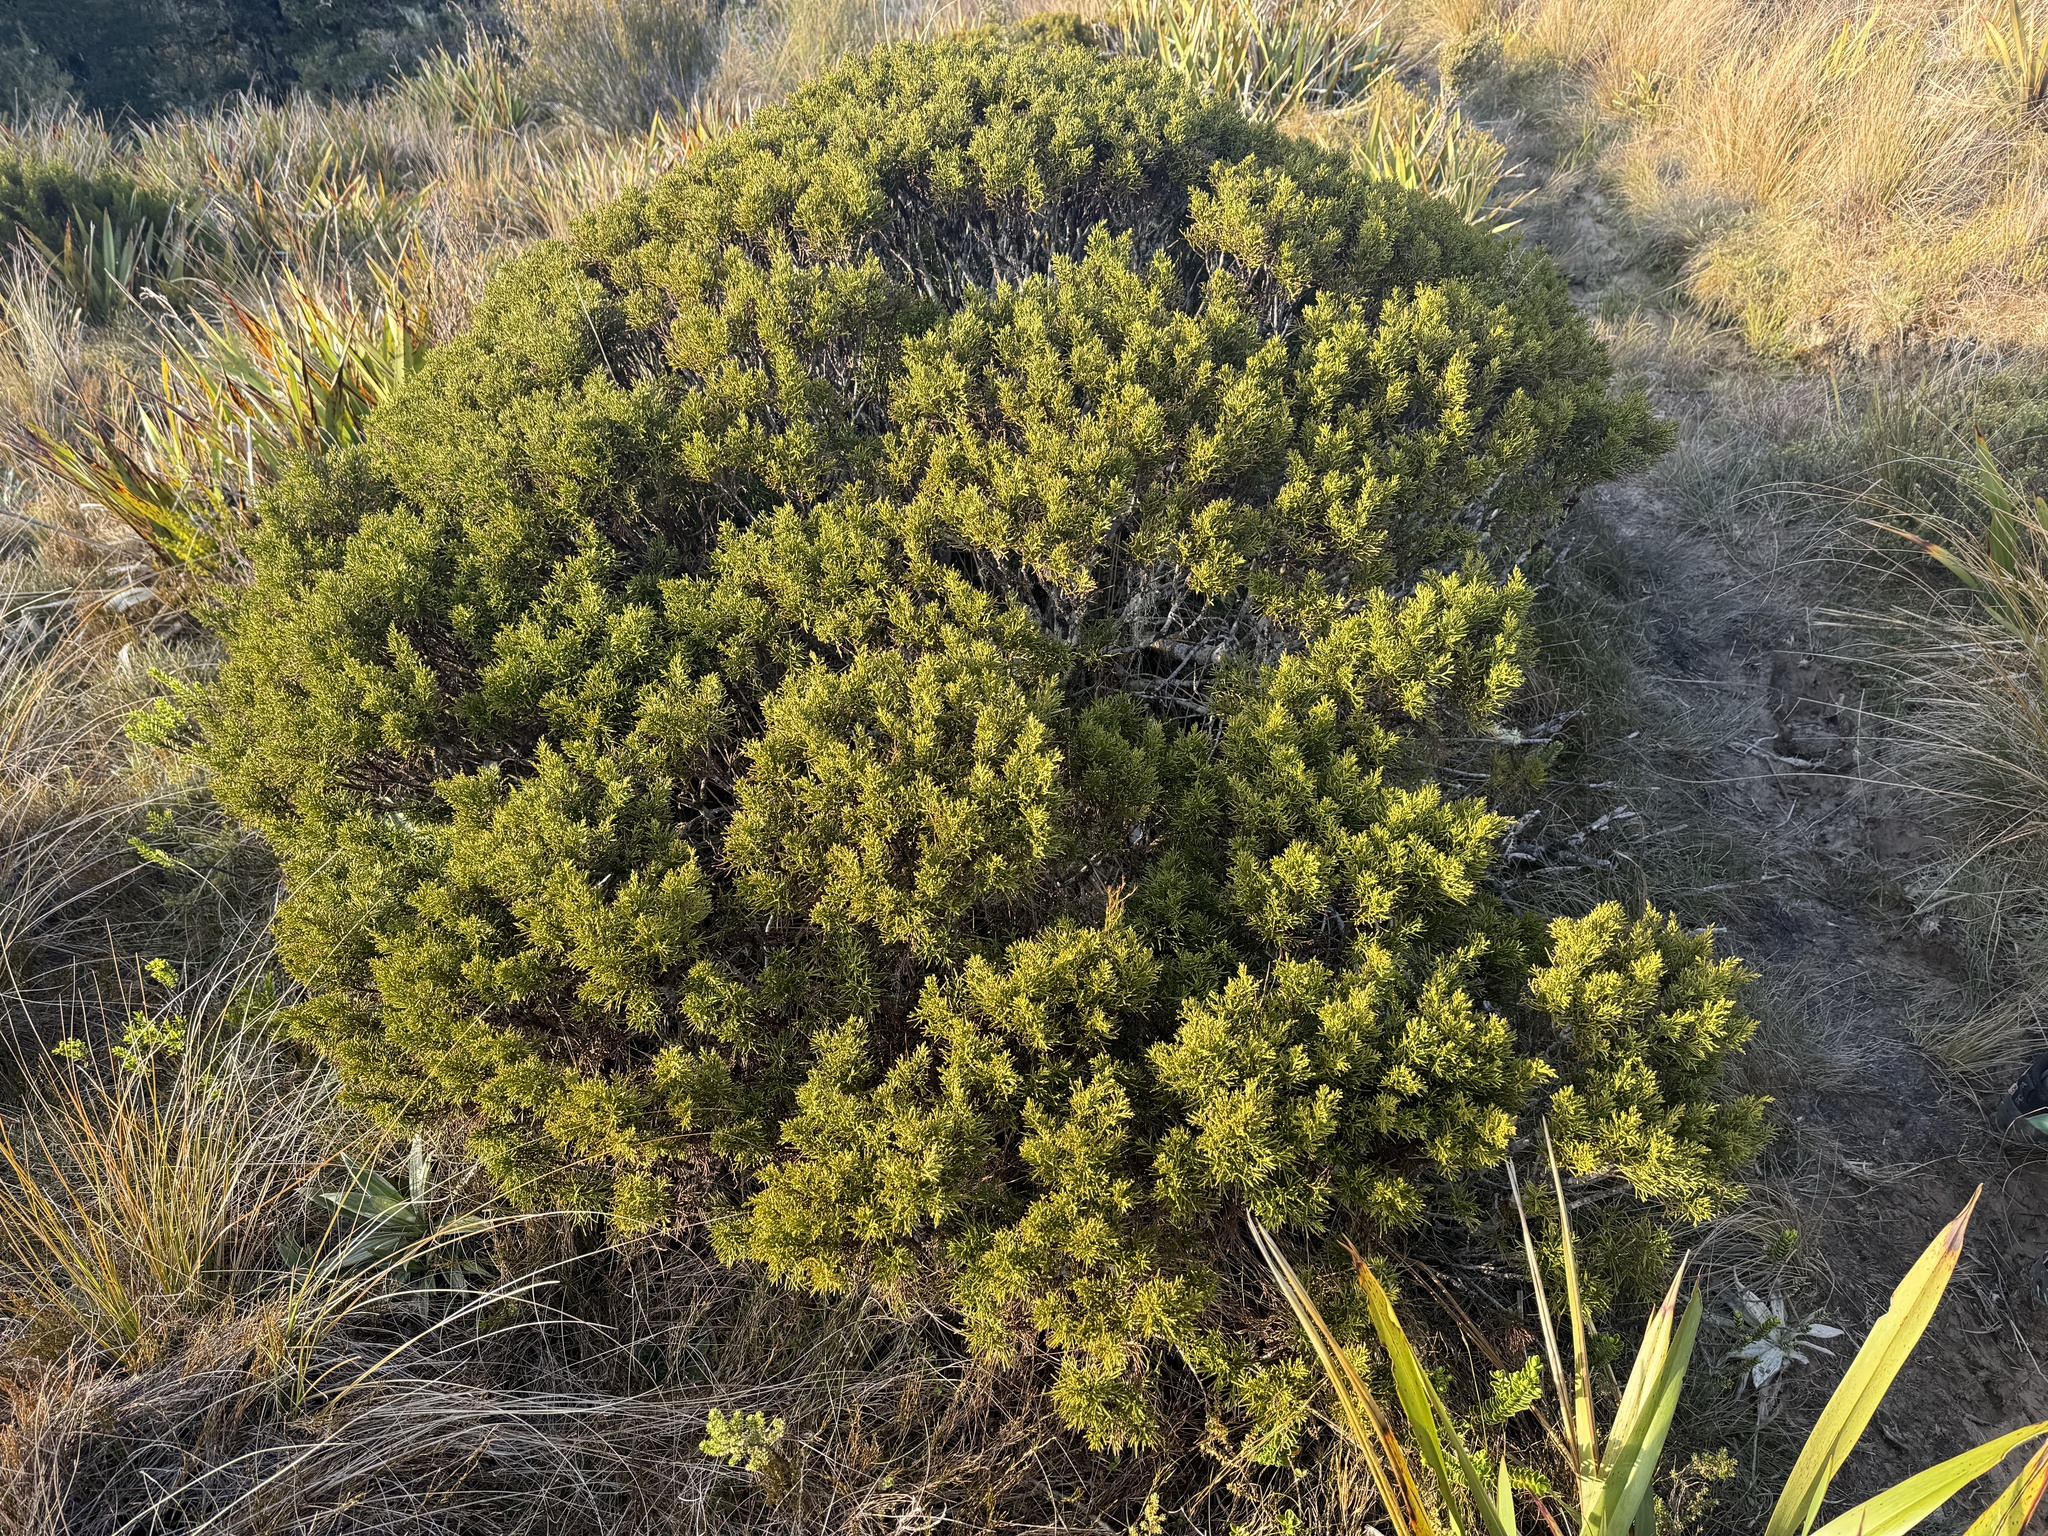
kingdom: Plantae
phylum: Tracheophyta
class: Pinopsida
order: Pinales
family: Podocarpaceae
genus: Halocarpus
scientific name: Halocarpus biformis
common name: Alpine tarwood
